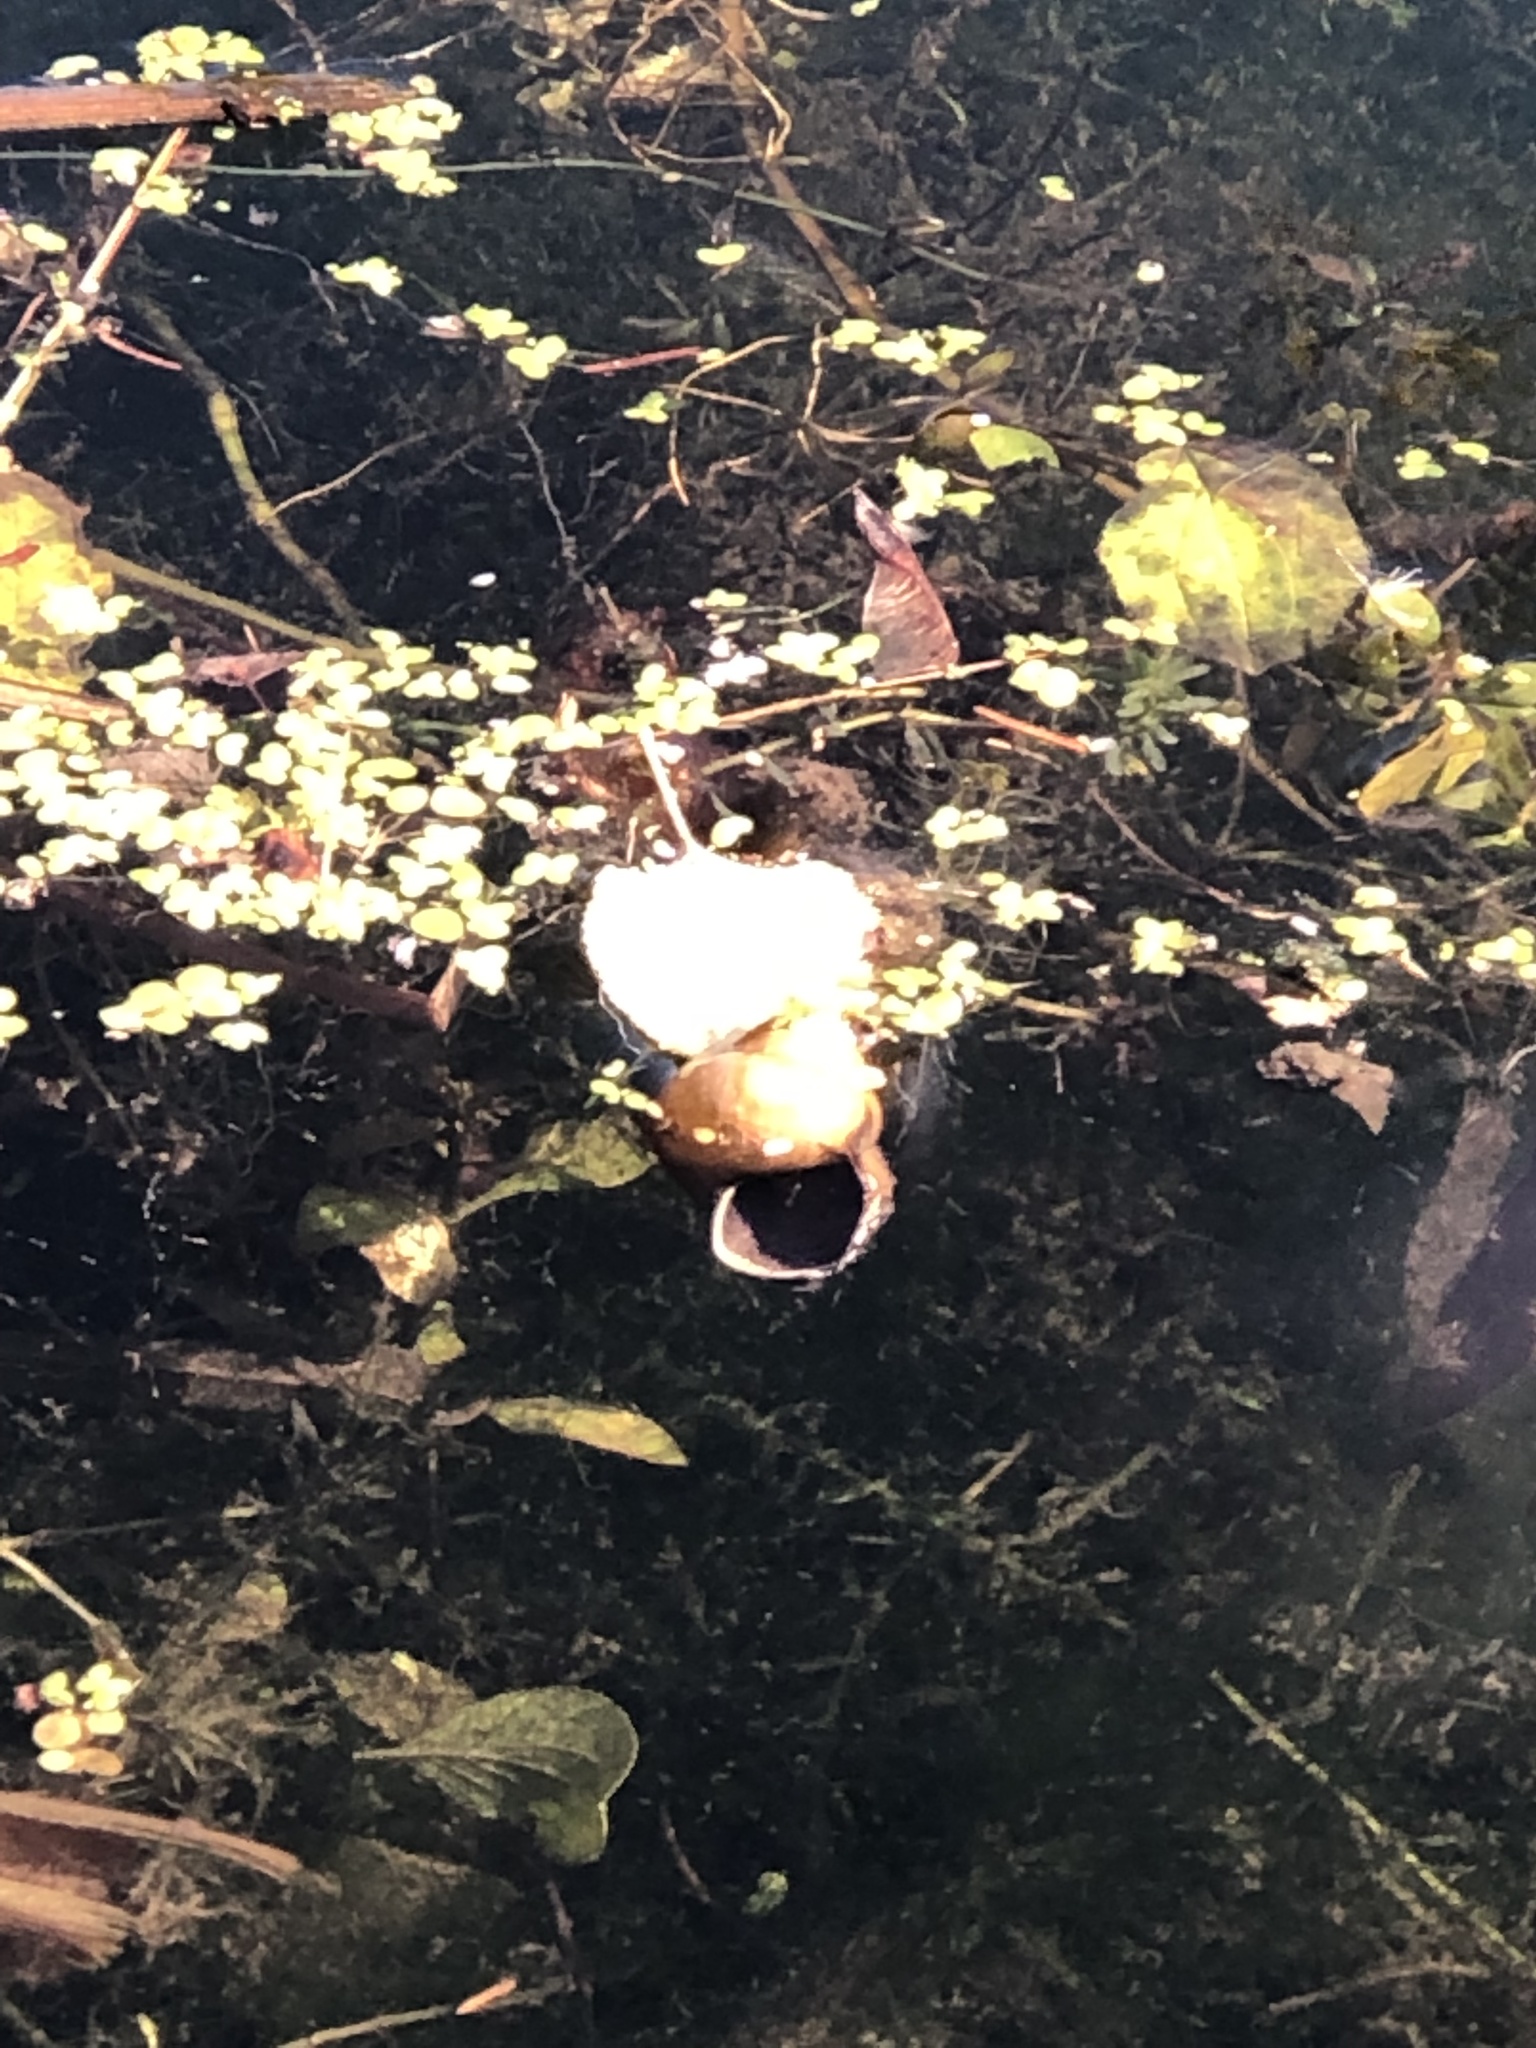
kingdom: Animalia
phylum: Mollusca
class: Gastropoda
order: Architaenioglossa
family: Viviparidae
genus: Cipangopaludina
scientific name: Cipangopaludina chinensis
